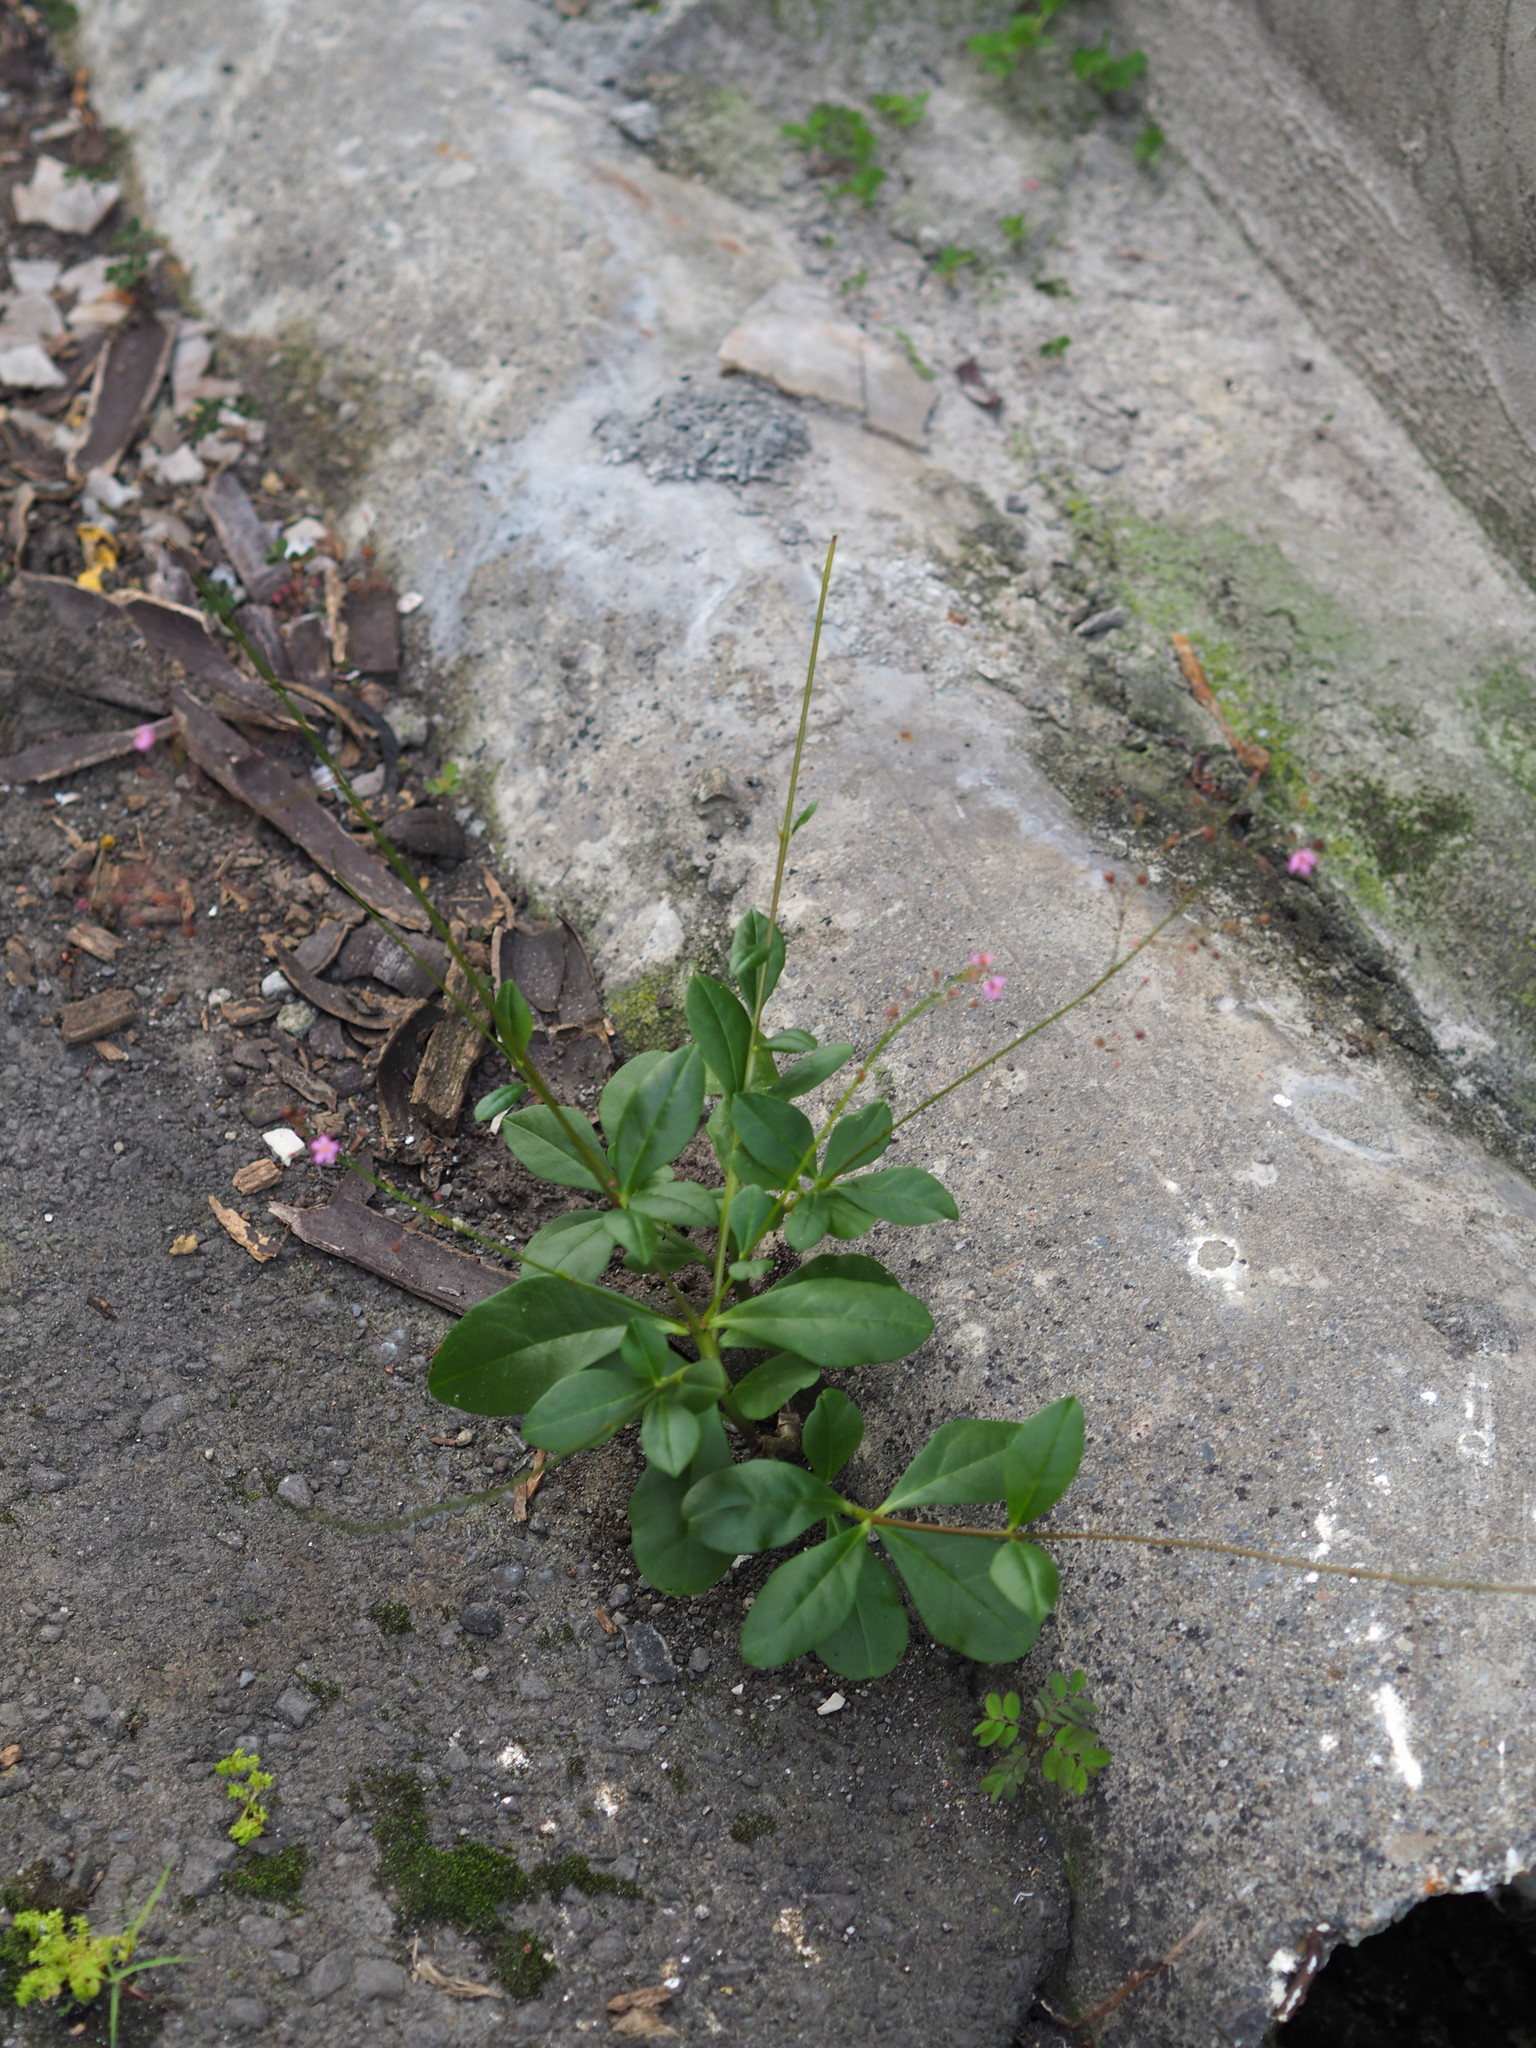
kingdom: Plantae
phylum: Tracheophyta
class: Magnoliopsida
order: Caryophyllales
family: Talinaceae
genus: Talinum
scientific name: Talinum paniculatum
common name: Jewels of opar
